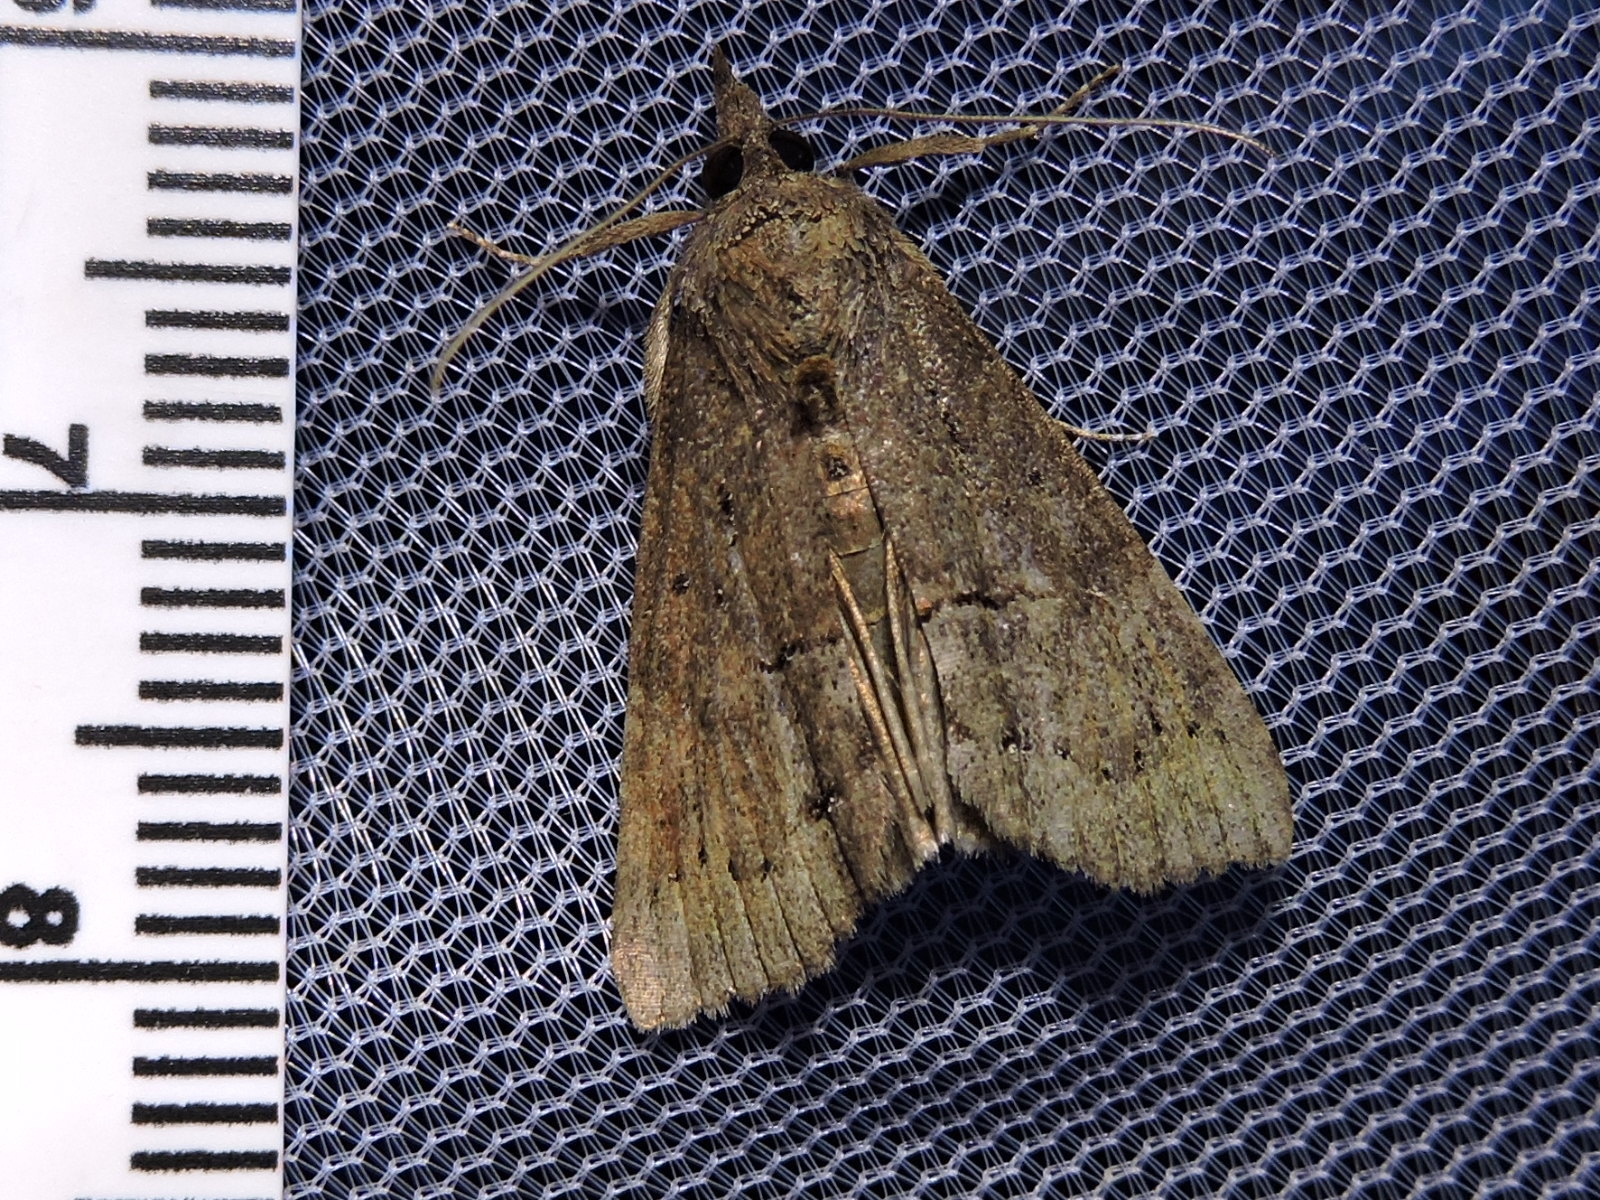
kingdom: Animalia
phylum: Arthropoda
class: Insecta
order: Lepidoptera
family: Erebidae
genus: Hypena
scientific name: Hypena scabra
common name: Green cloverworm
